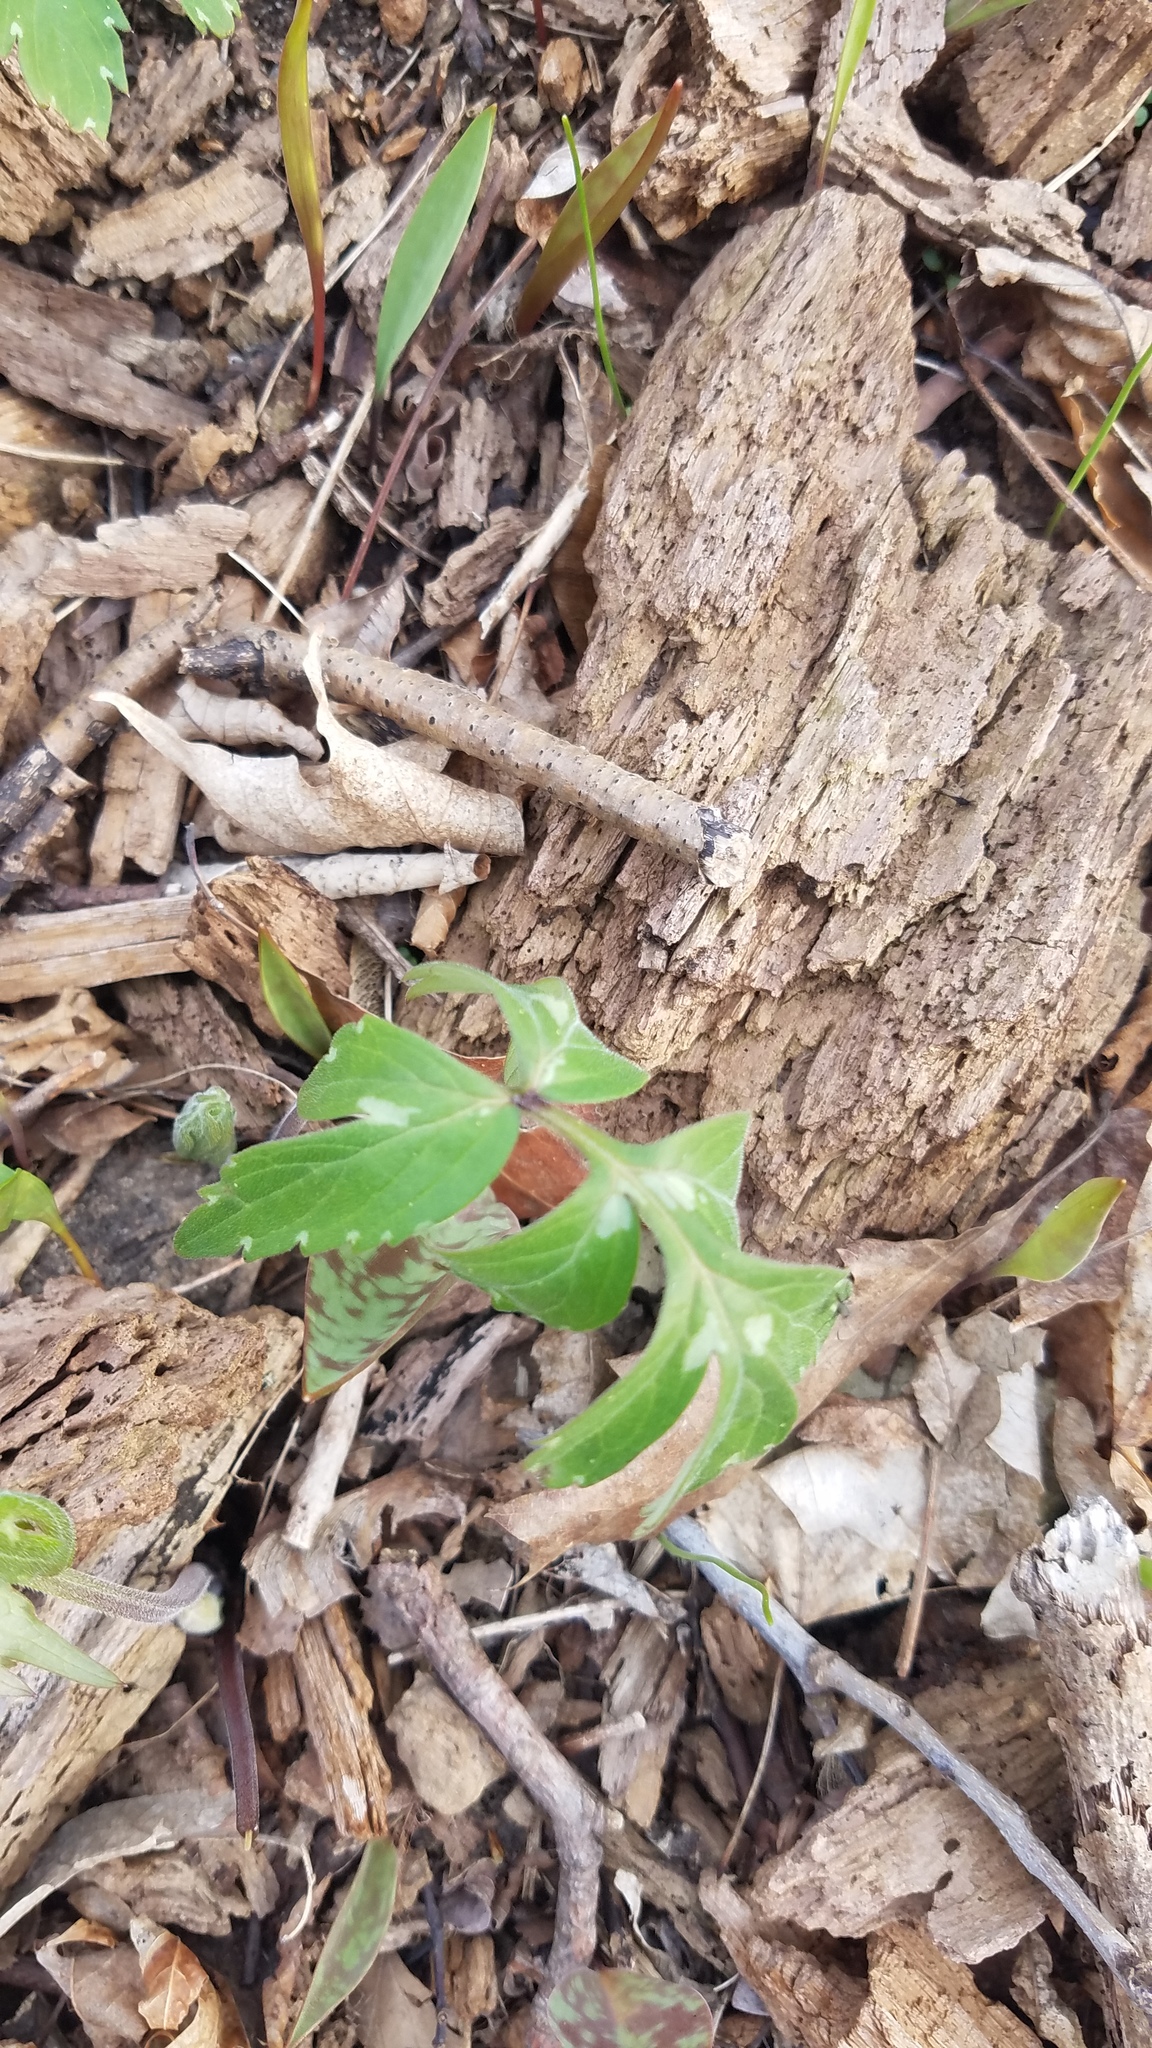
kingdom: Plantae
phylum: Tracheophyta
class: Magnoliopsida
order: Boraginales
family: Hydrophyllaceae
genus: Hydrophyllum
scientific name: Hydrophyllum virginianum
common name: Virginia waterleaf
